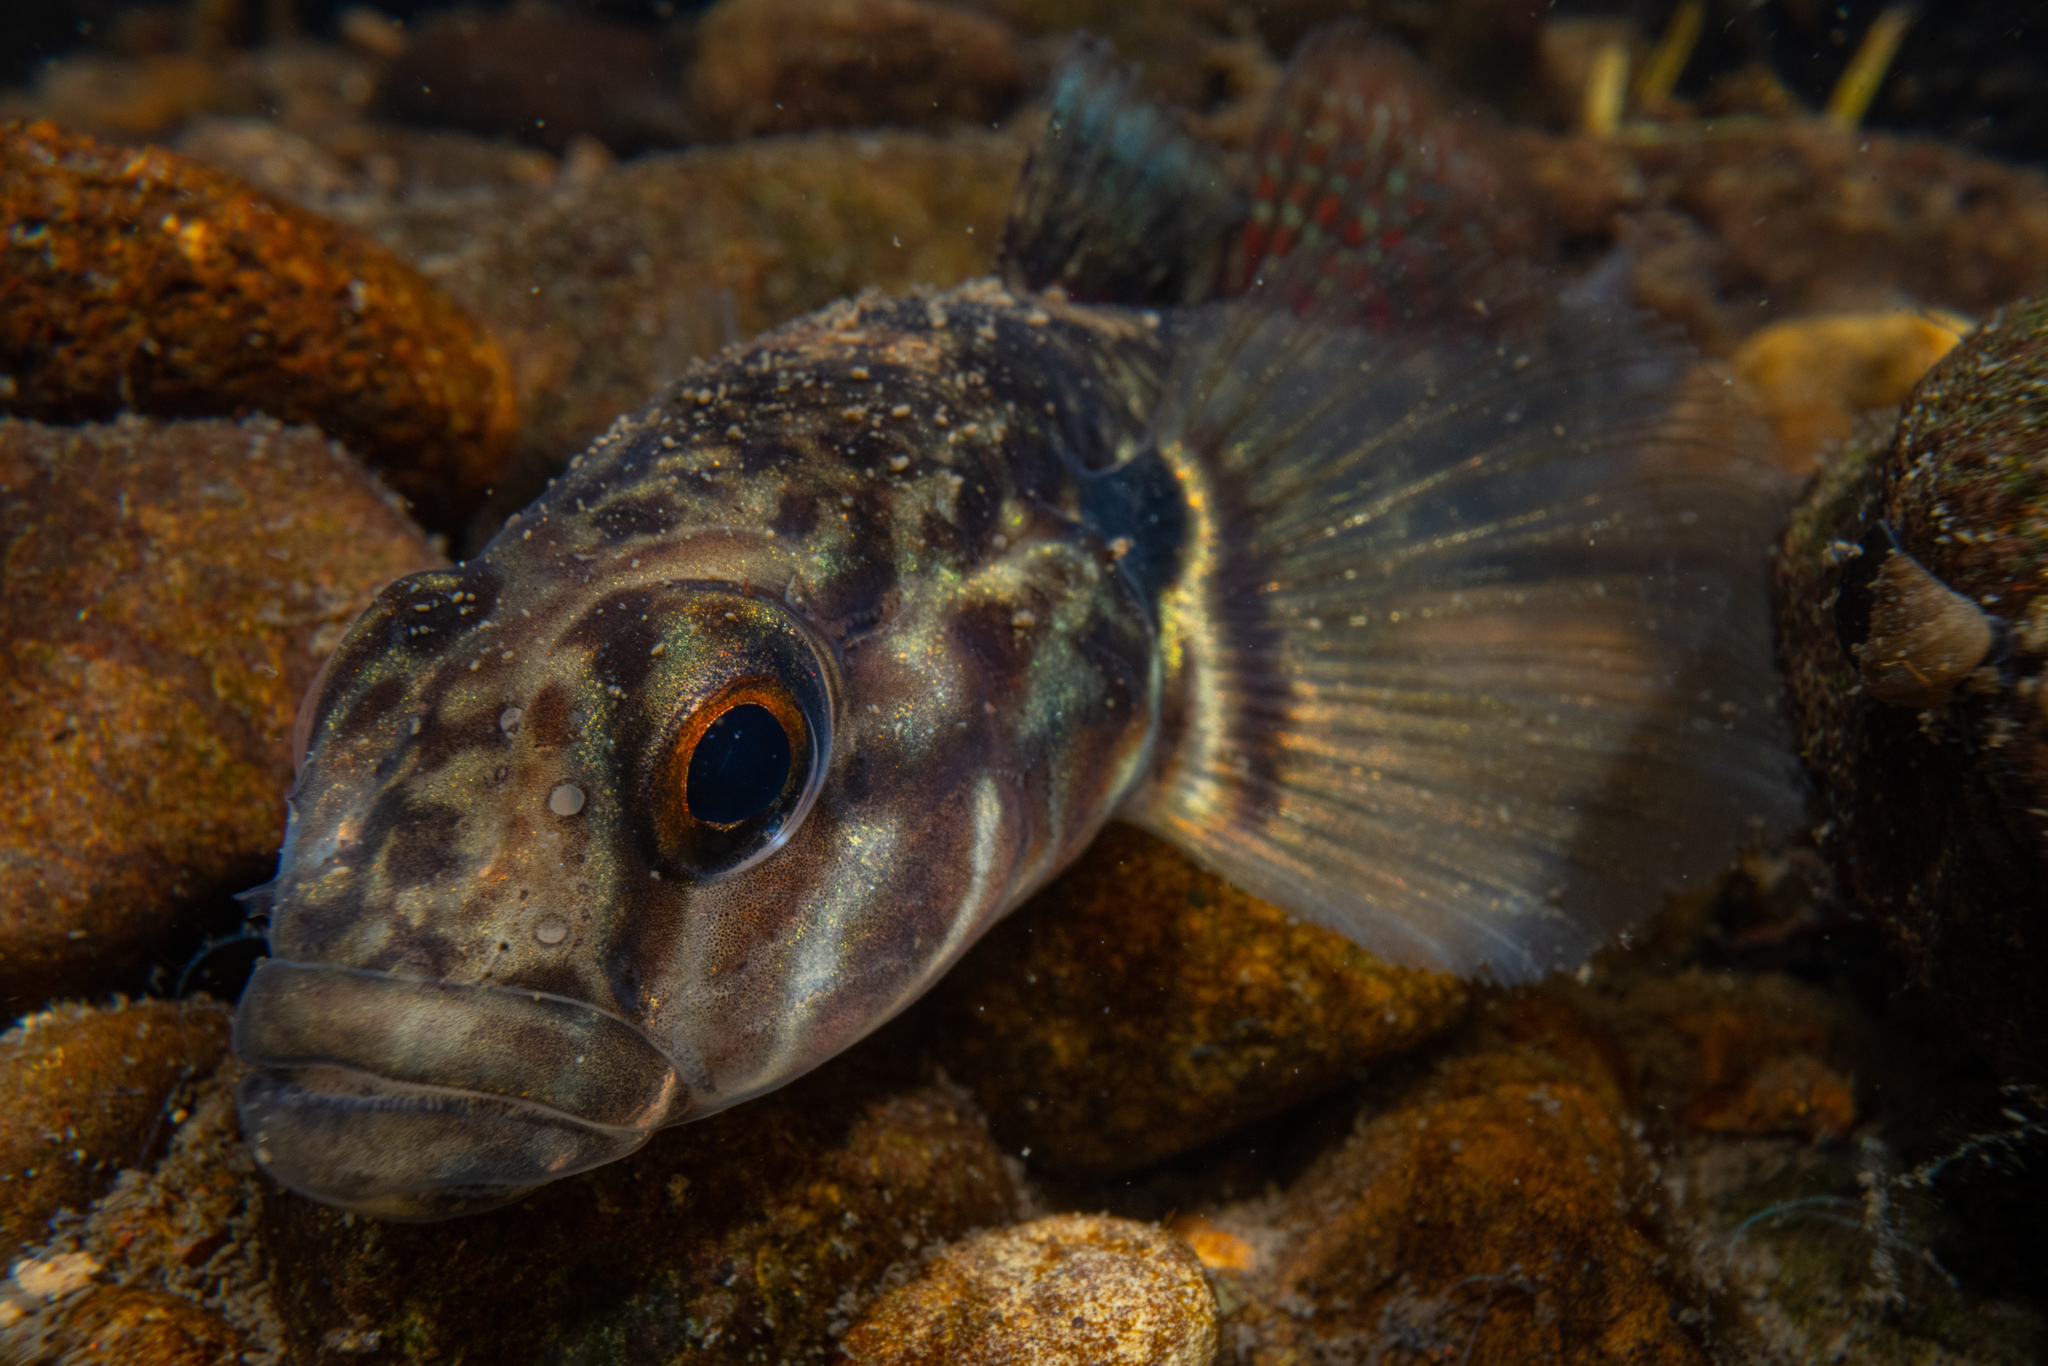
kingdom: Animalia
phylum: Chordata
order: Perciformes
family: Eleotridae
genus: Gobiomorphus
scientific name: Gobiomorphus huttoni
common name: Redfin bully
